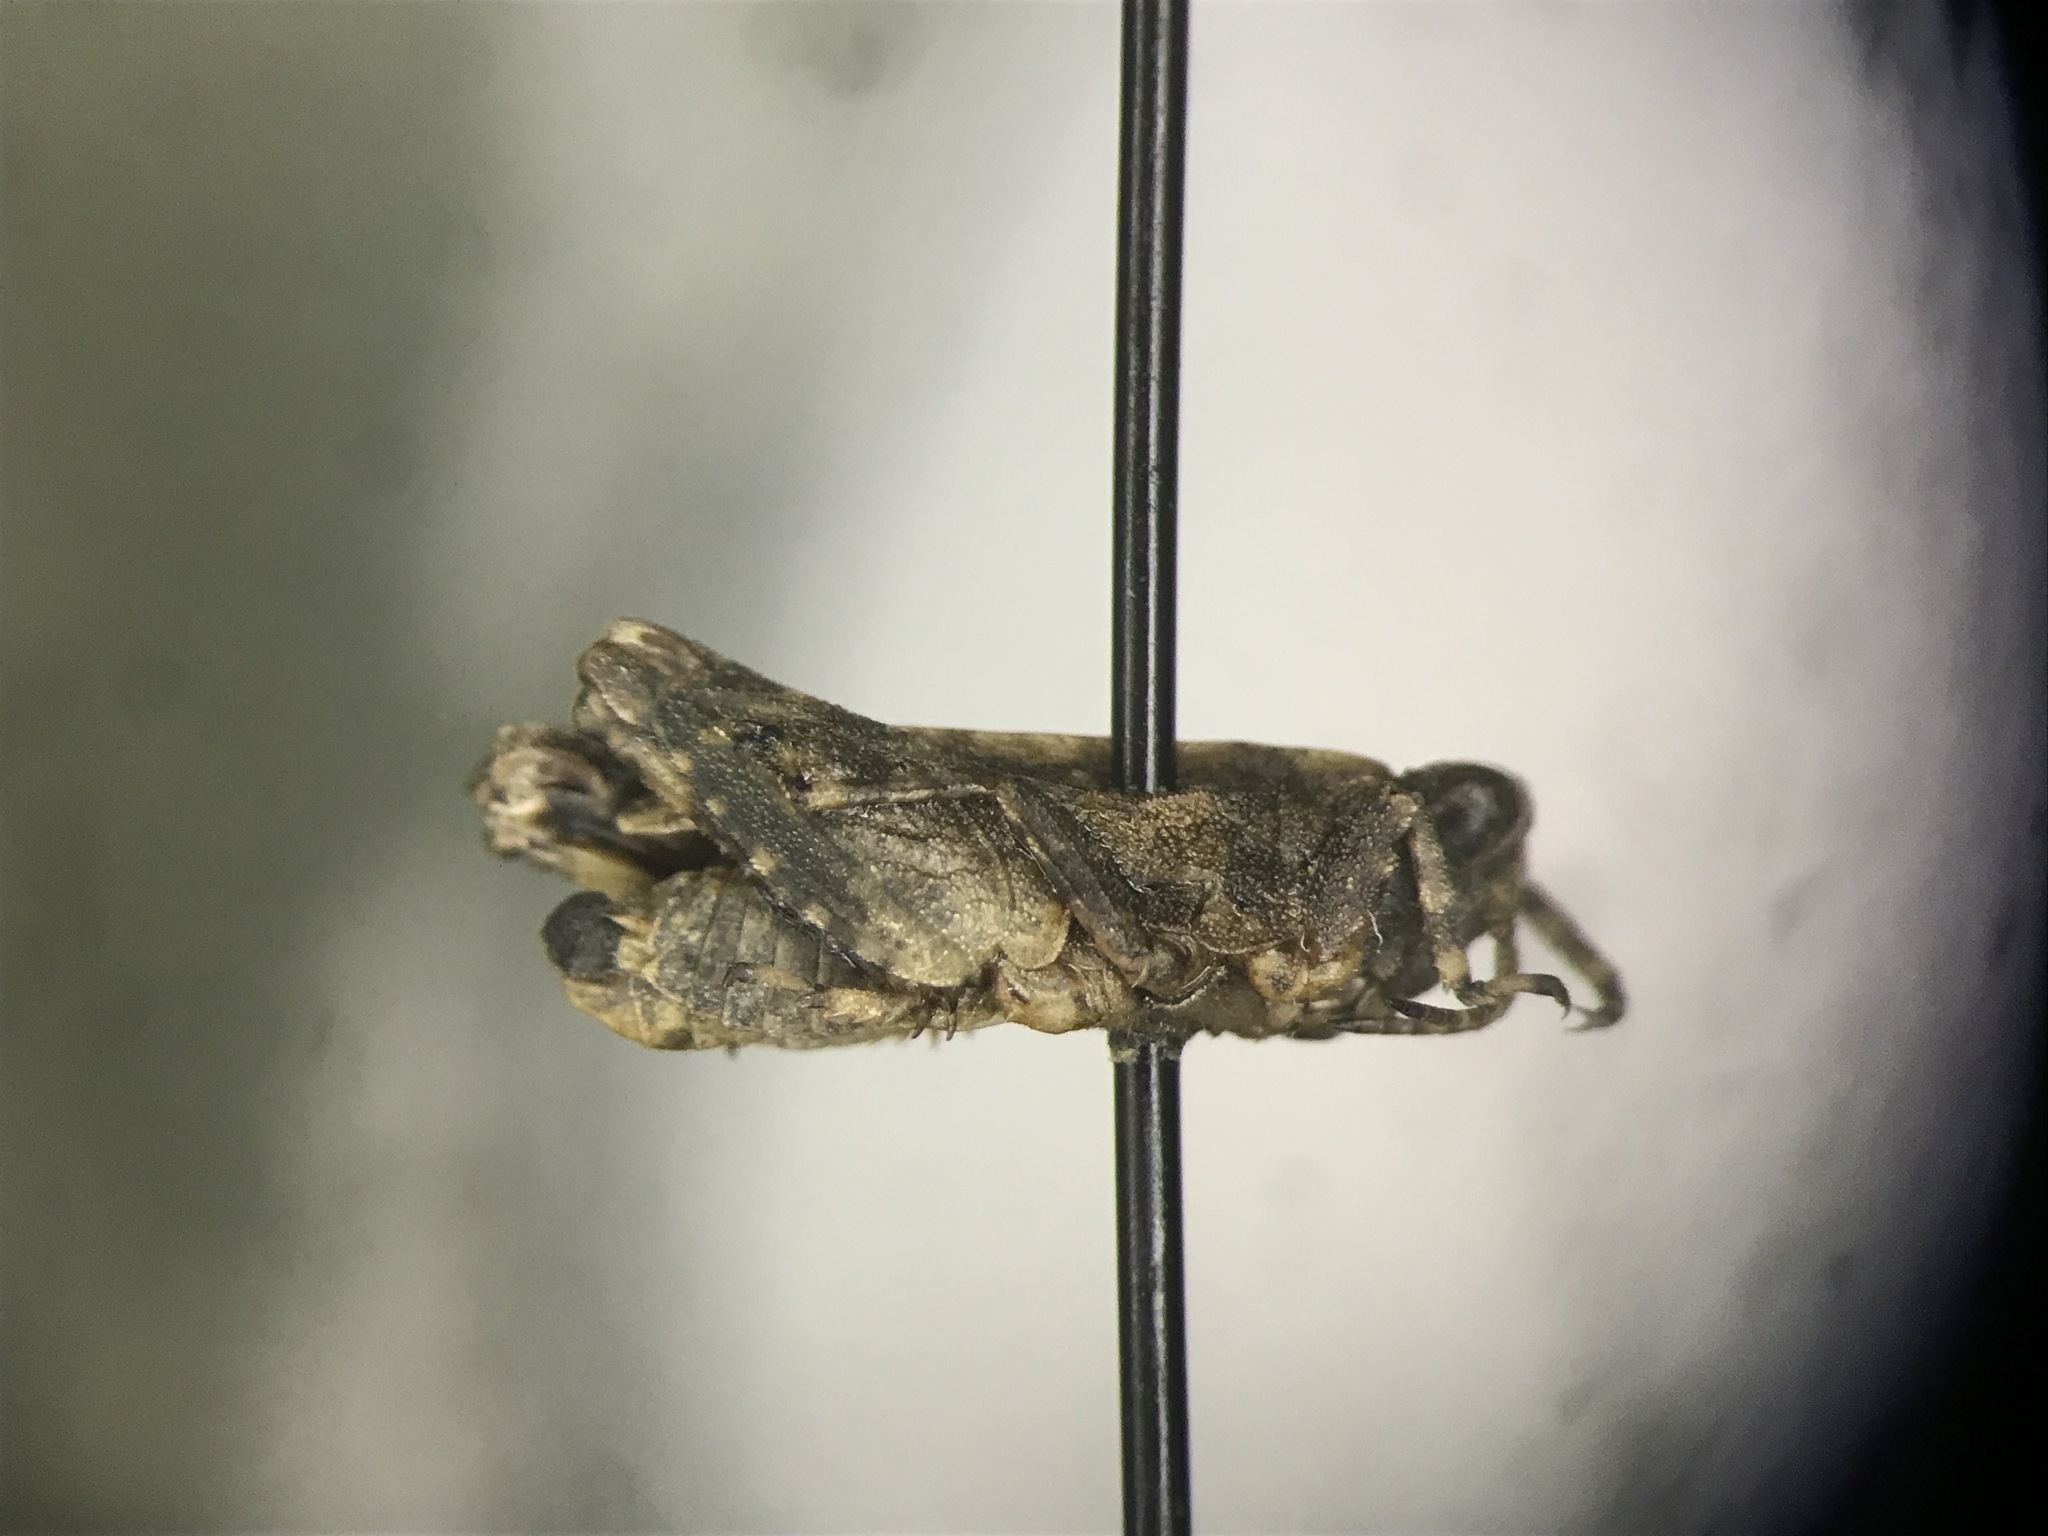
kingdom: Animalia
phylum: Arthropoda
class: Insecta
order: Orthoptera
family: Tetrigidae
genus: Paratettix
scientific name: Paratettix cucullatus
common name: Hooded grouse locust
